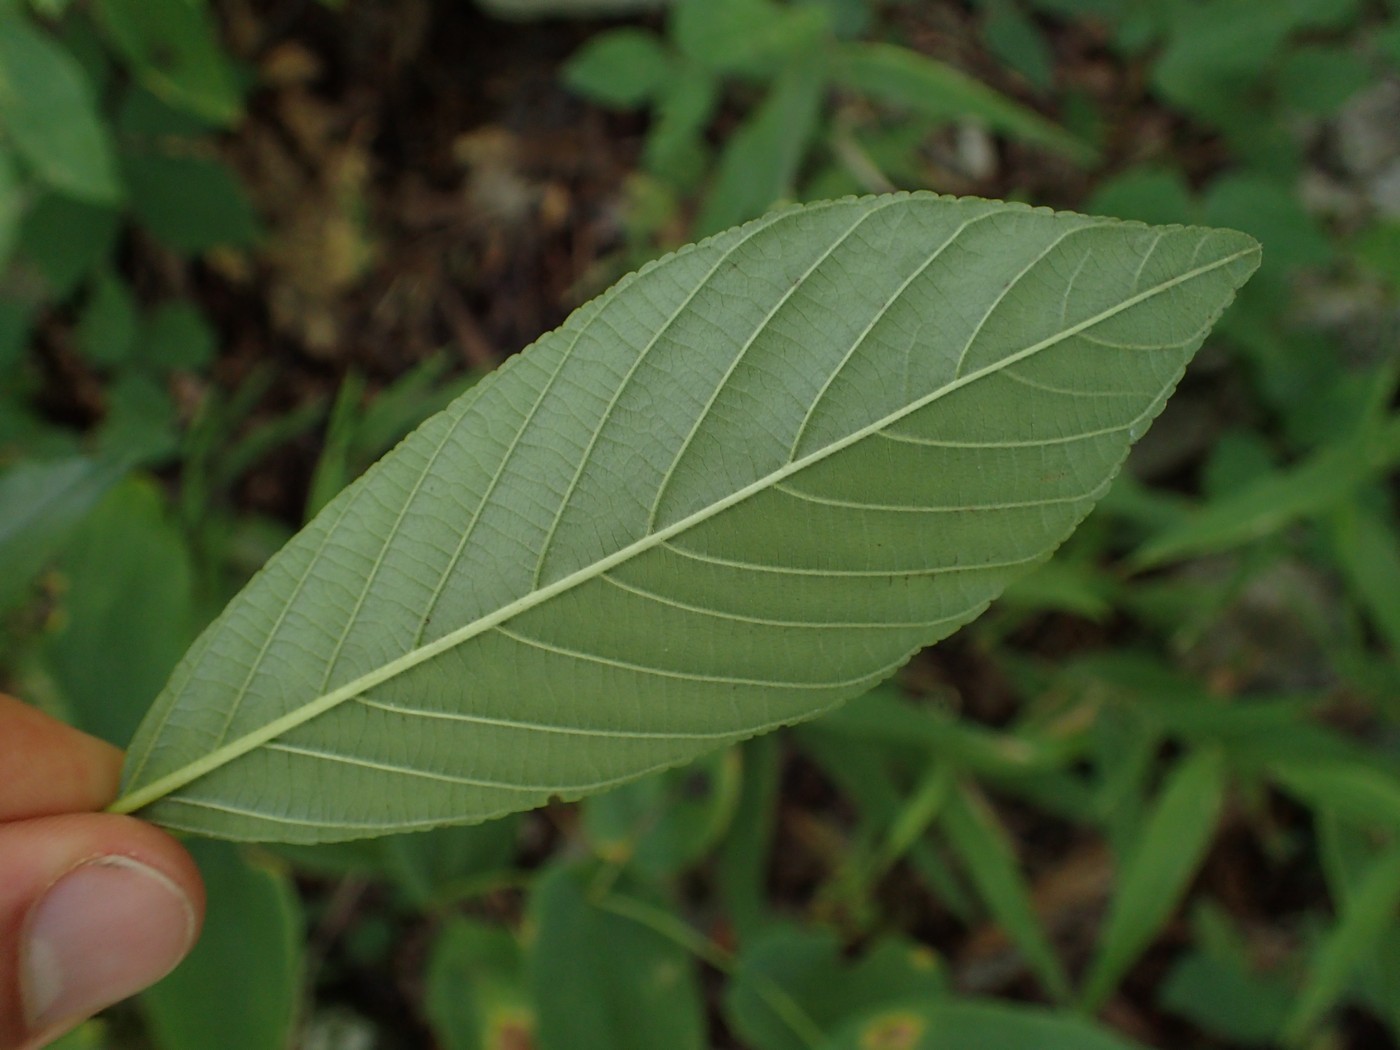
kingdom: Plantae
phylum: Tracheophyta
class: Magnoliopsida
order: Rosales
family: Rhamnaceae
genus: Frangula
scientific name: Frangula caroliniana
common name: Carolina buckthorn
